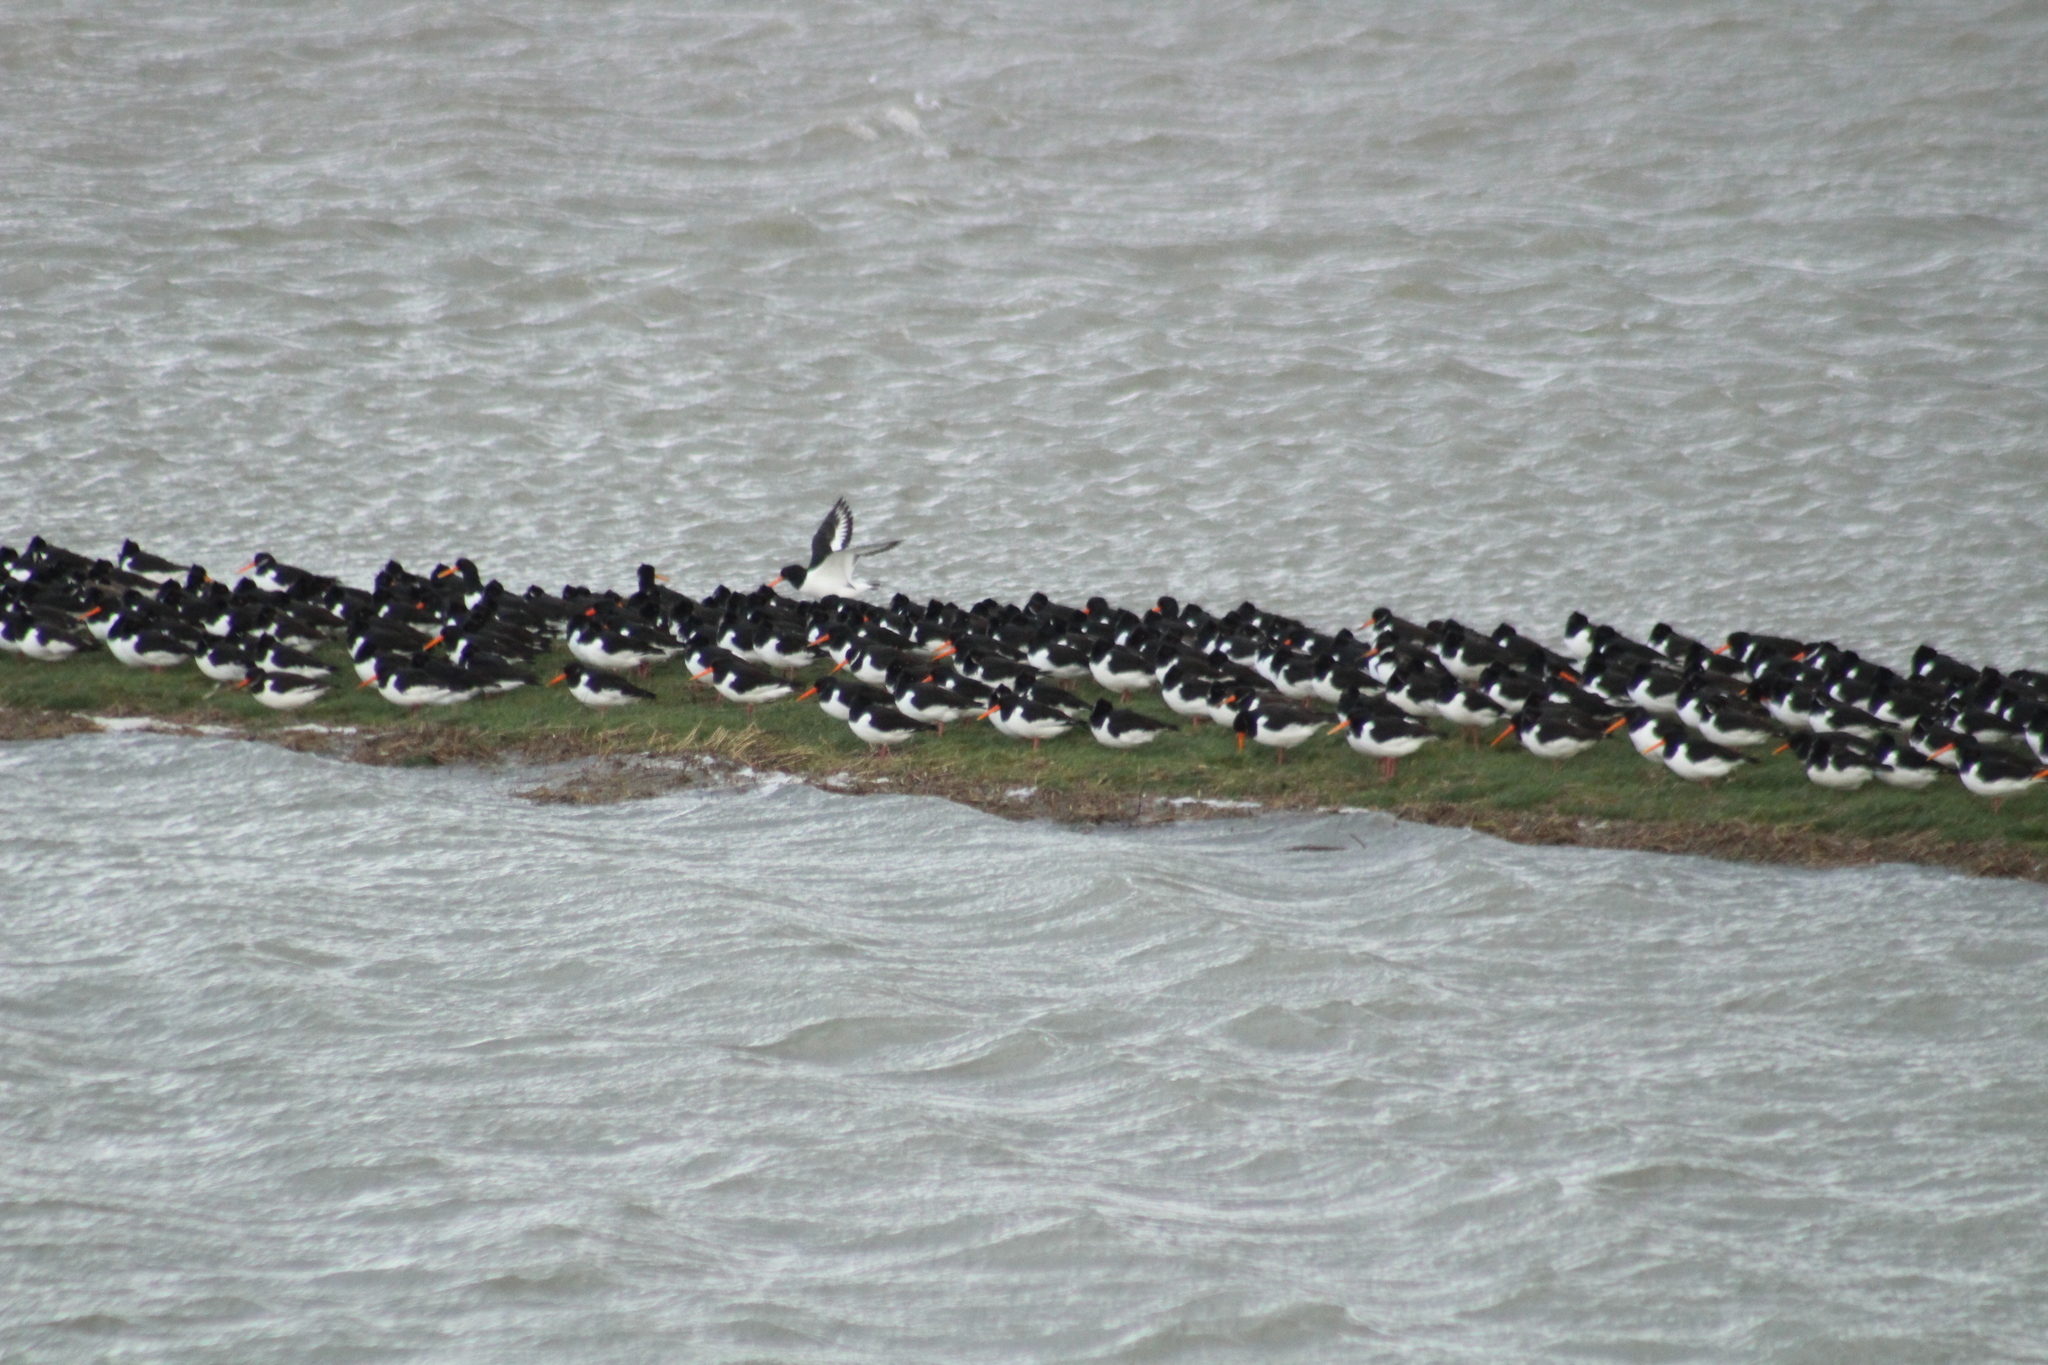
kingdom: Animalia
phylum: Chordata
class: Aves
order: Charadriiformes
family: Haematopodidae
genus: Haematopus
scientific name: Haematopus ostralegus
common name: Eurasian oystercatcher
